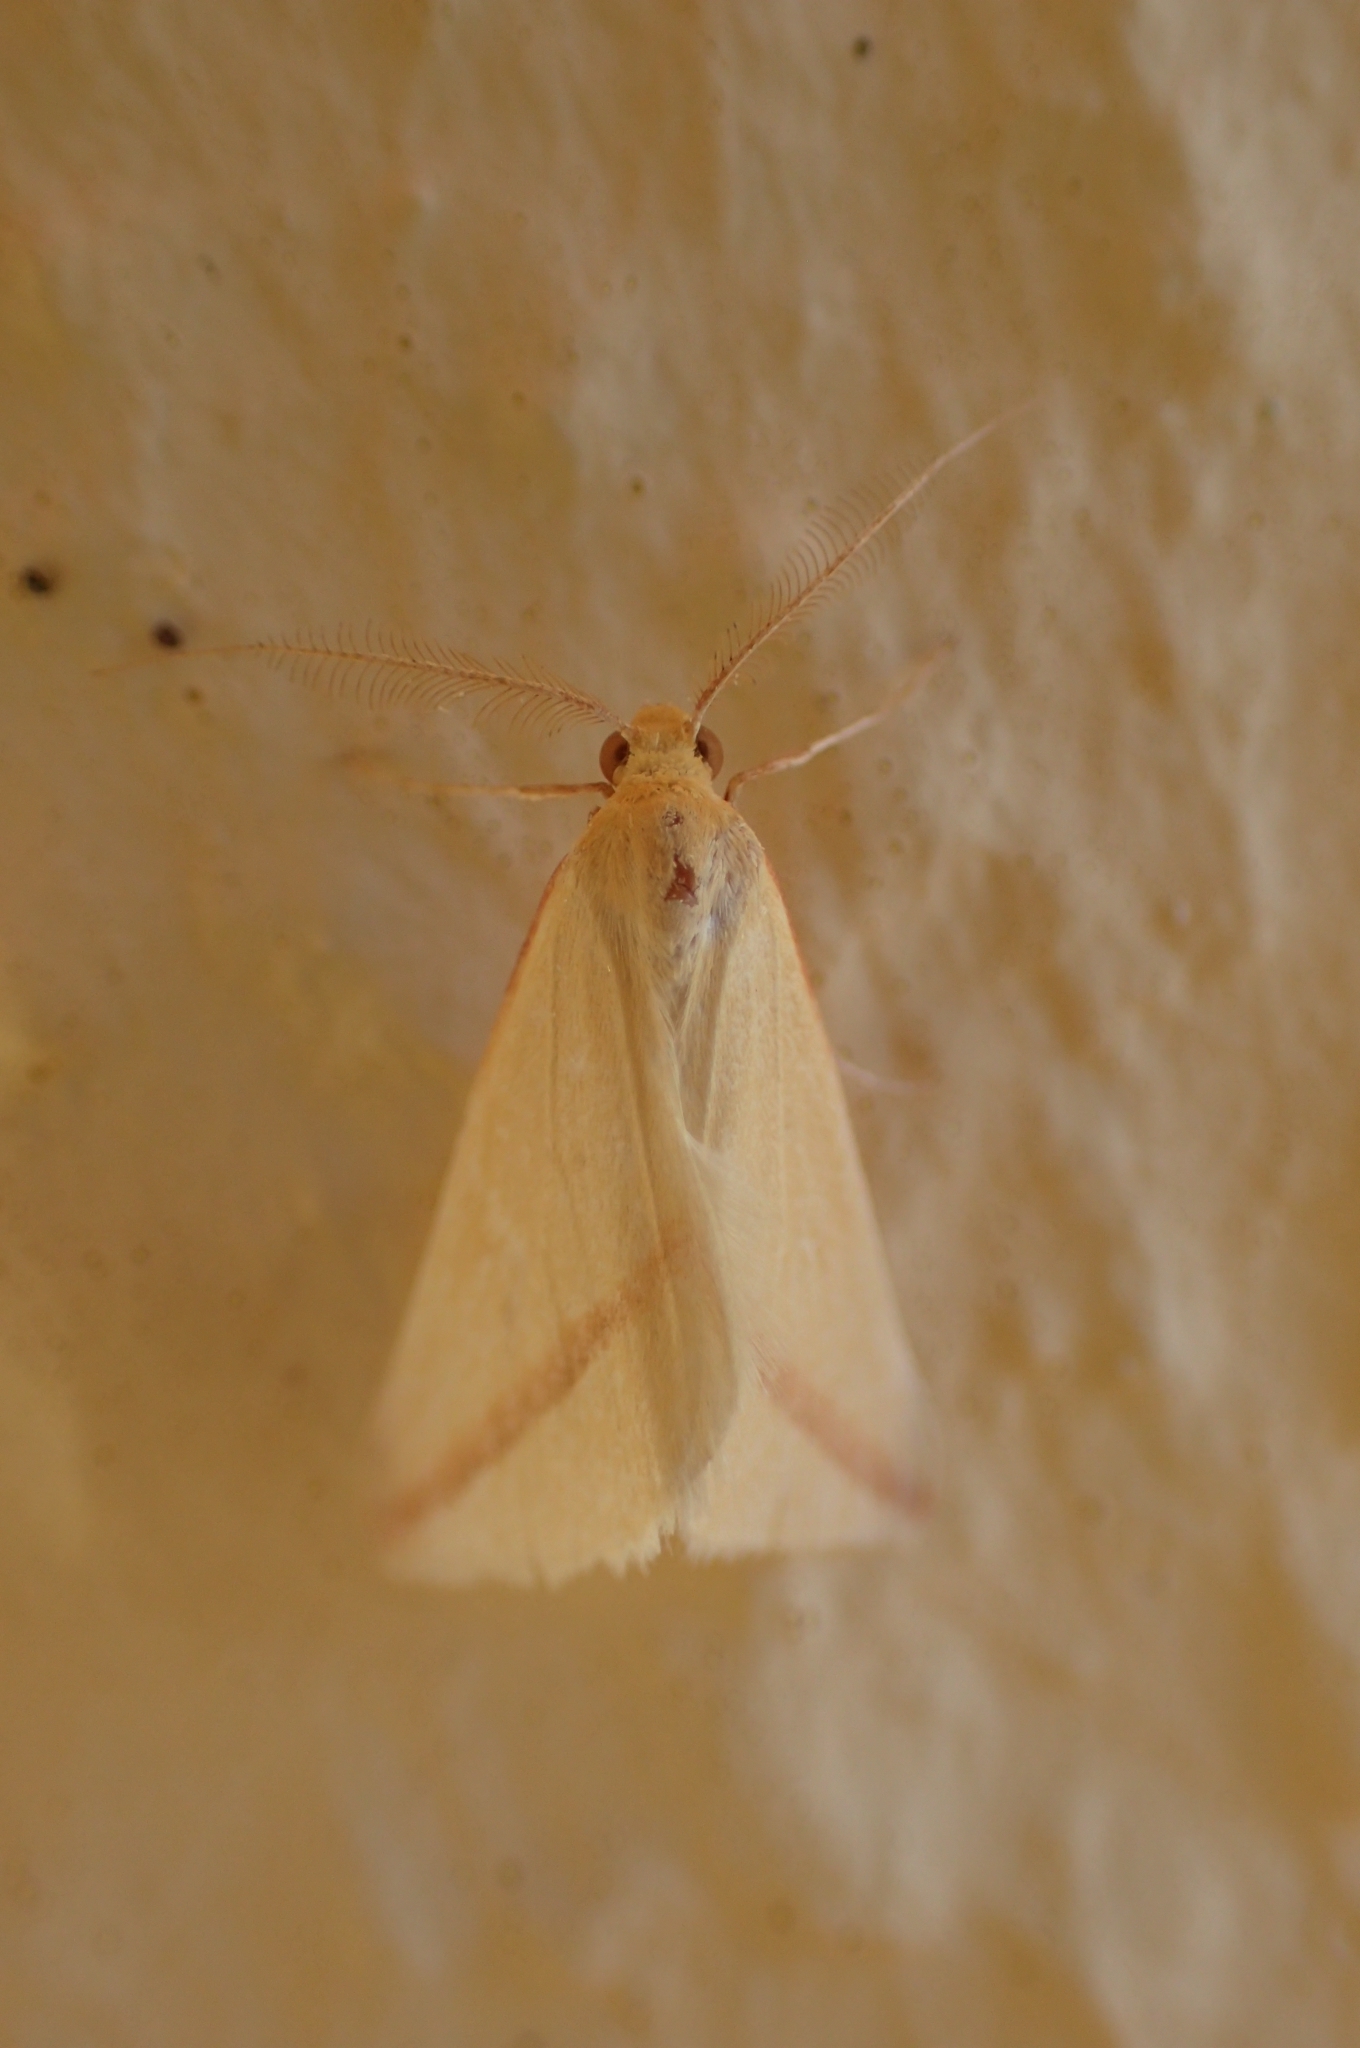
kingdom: Animalia
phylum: Arthropoda
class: Insecta
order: Lepidoptera
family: Geometridae
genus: Rhodometra
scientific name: Rhodometra sacraria
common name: Vestal
